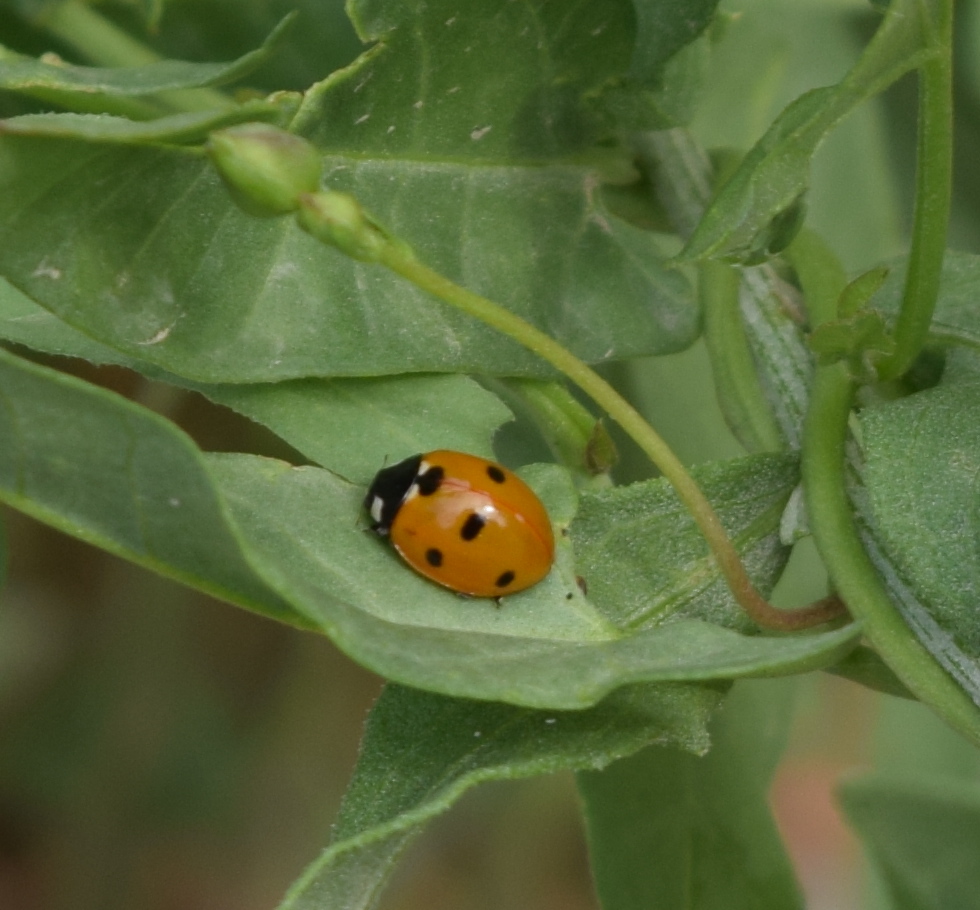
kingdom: Animalia
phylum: Arthropoda
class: Insecta
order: Coleoptera
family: Coccinellidae
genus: Coccinella
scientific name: Coccinella septempunctata
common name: Sevenspotted lady beetle
